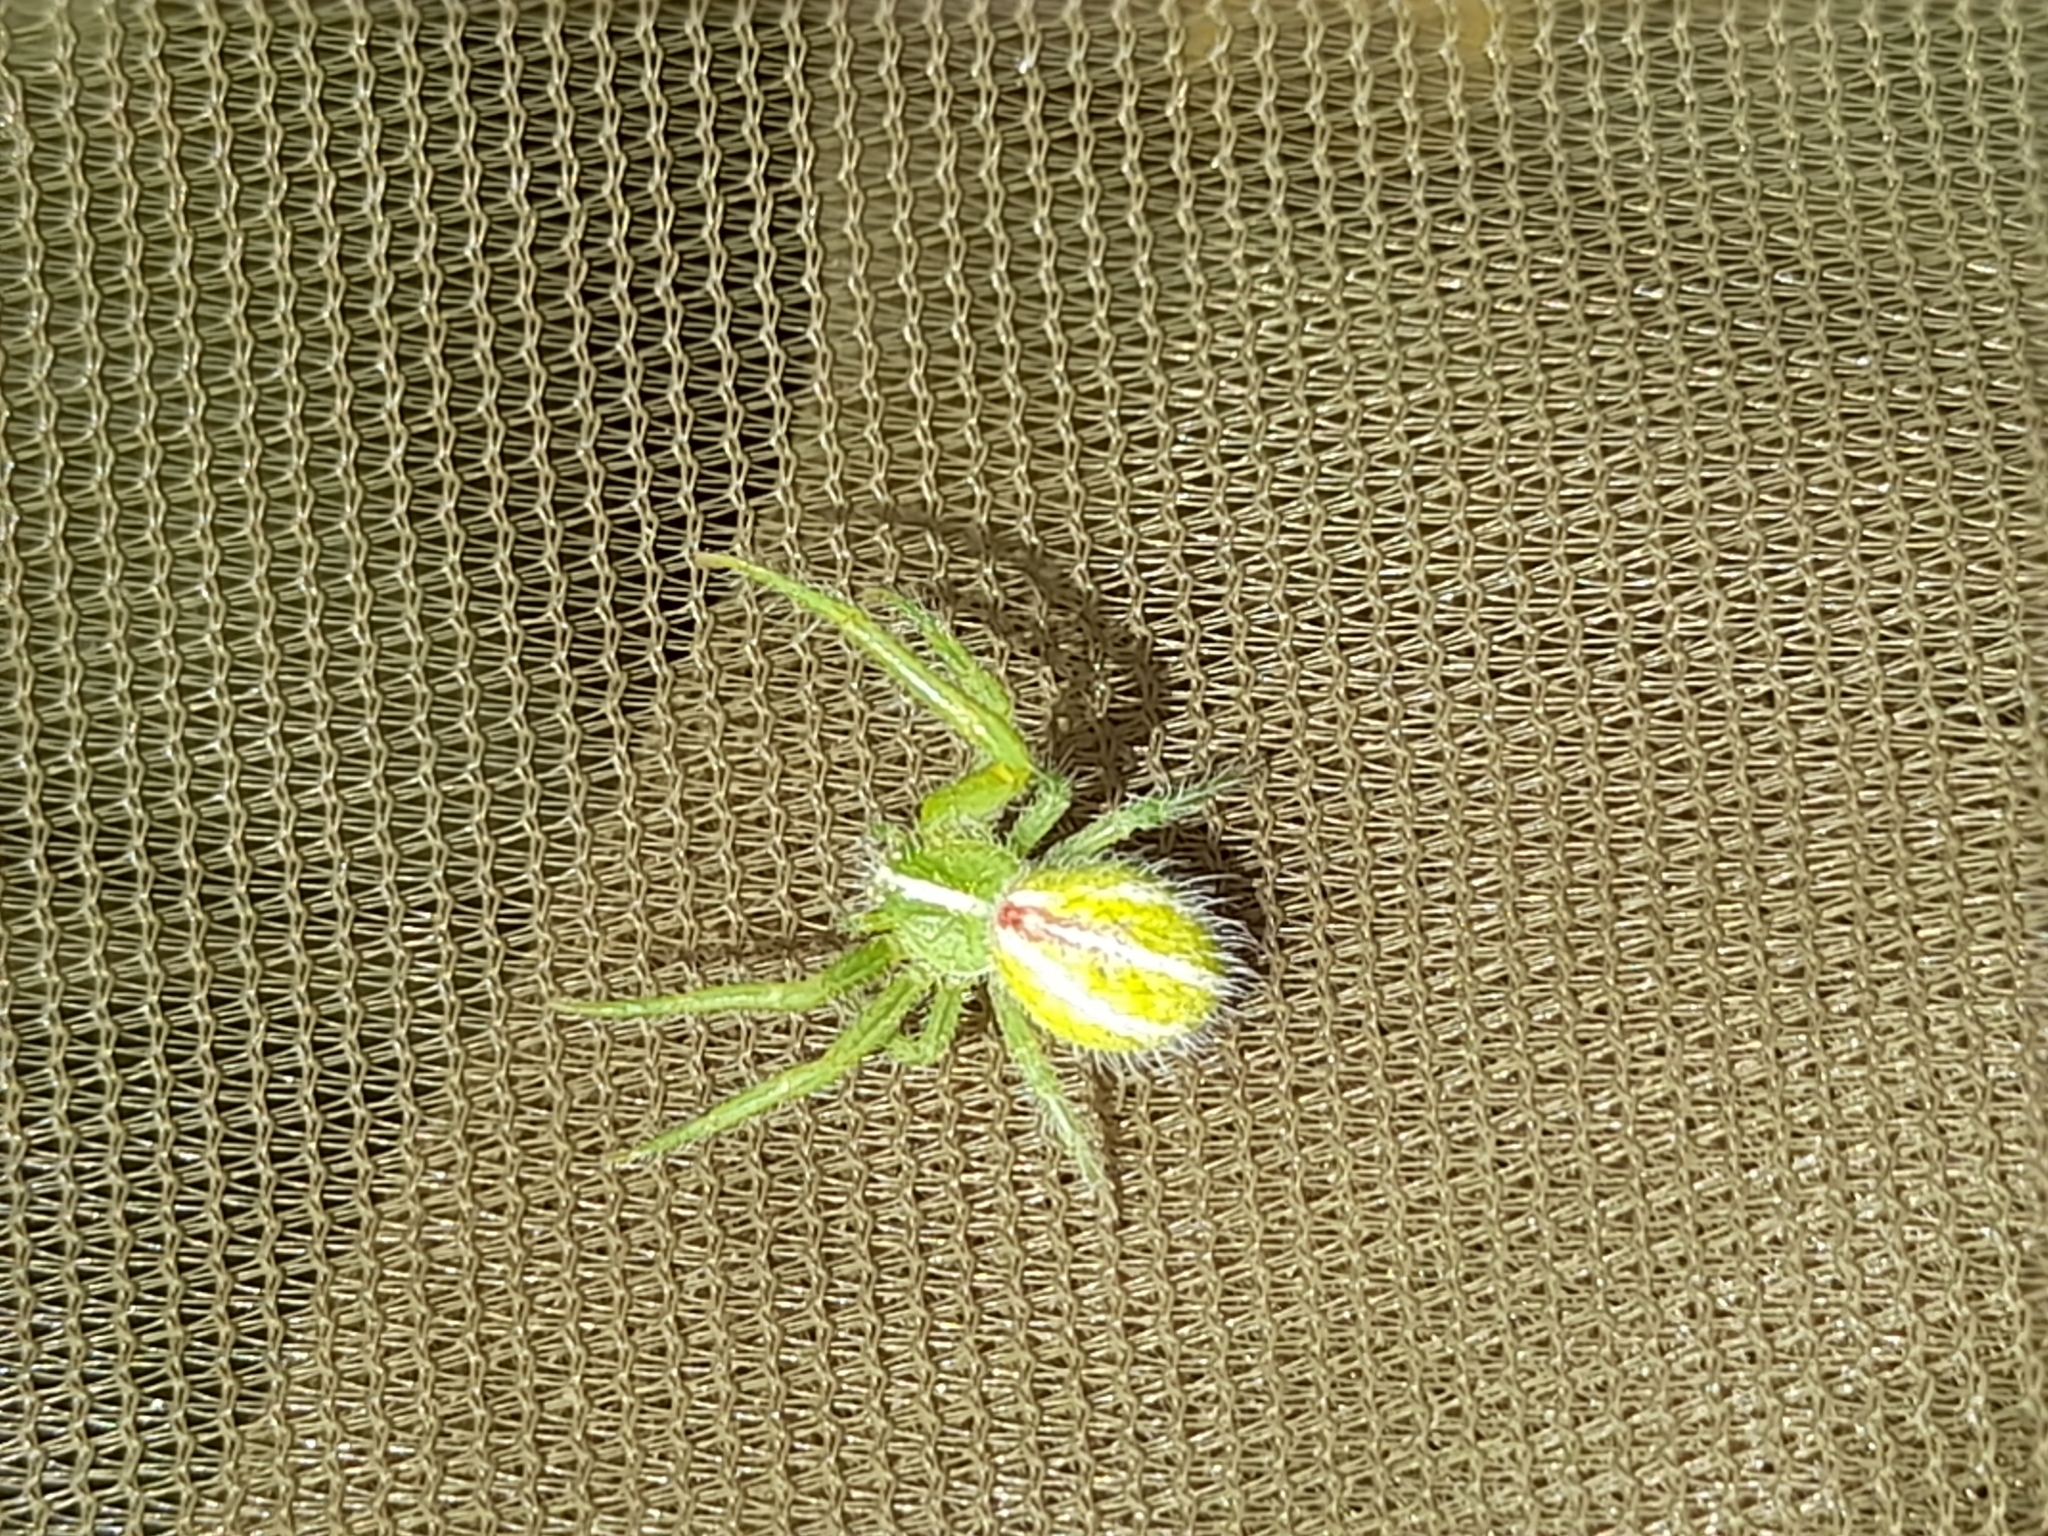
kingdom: Animalia
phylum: Arthropoda
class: Arachnida
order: Araneae
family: Thomisidae
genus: Heriaeus
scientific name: Heriaeus oblongus
